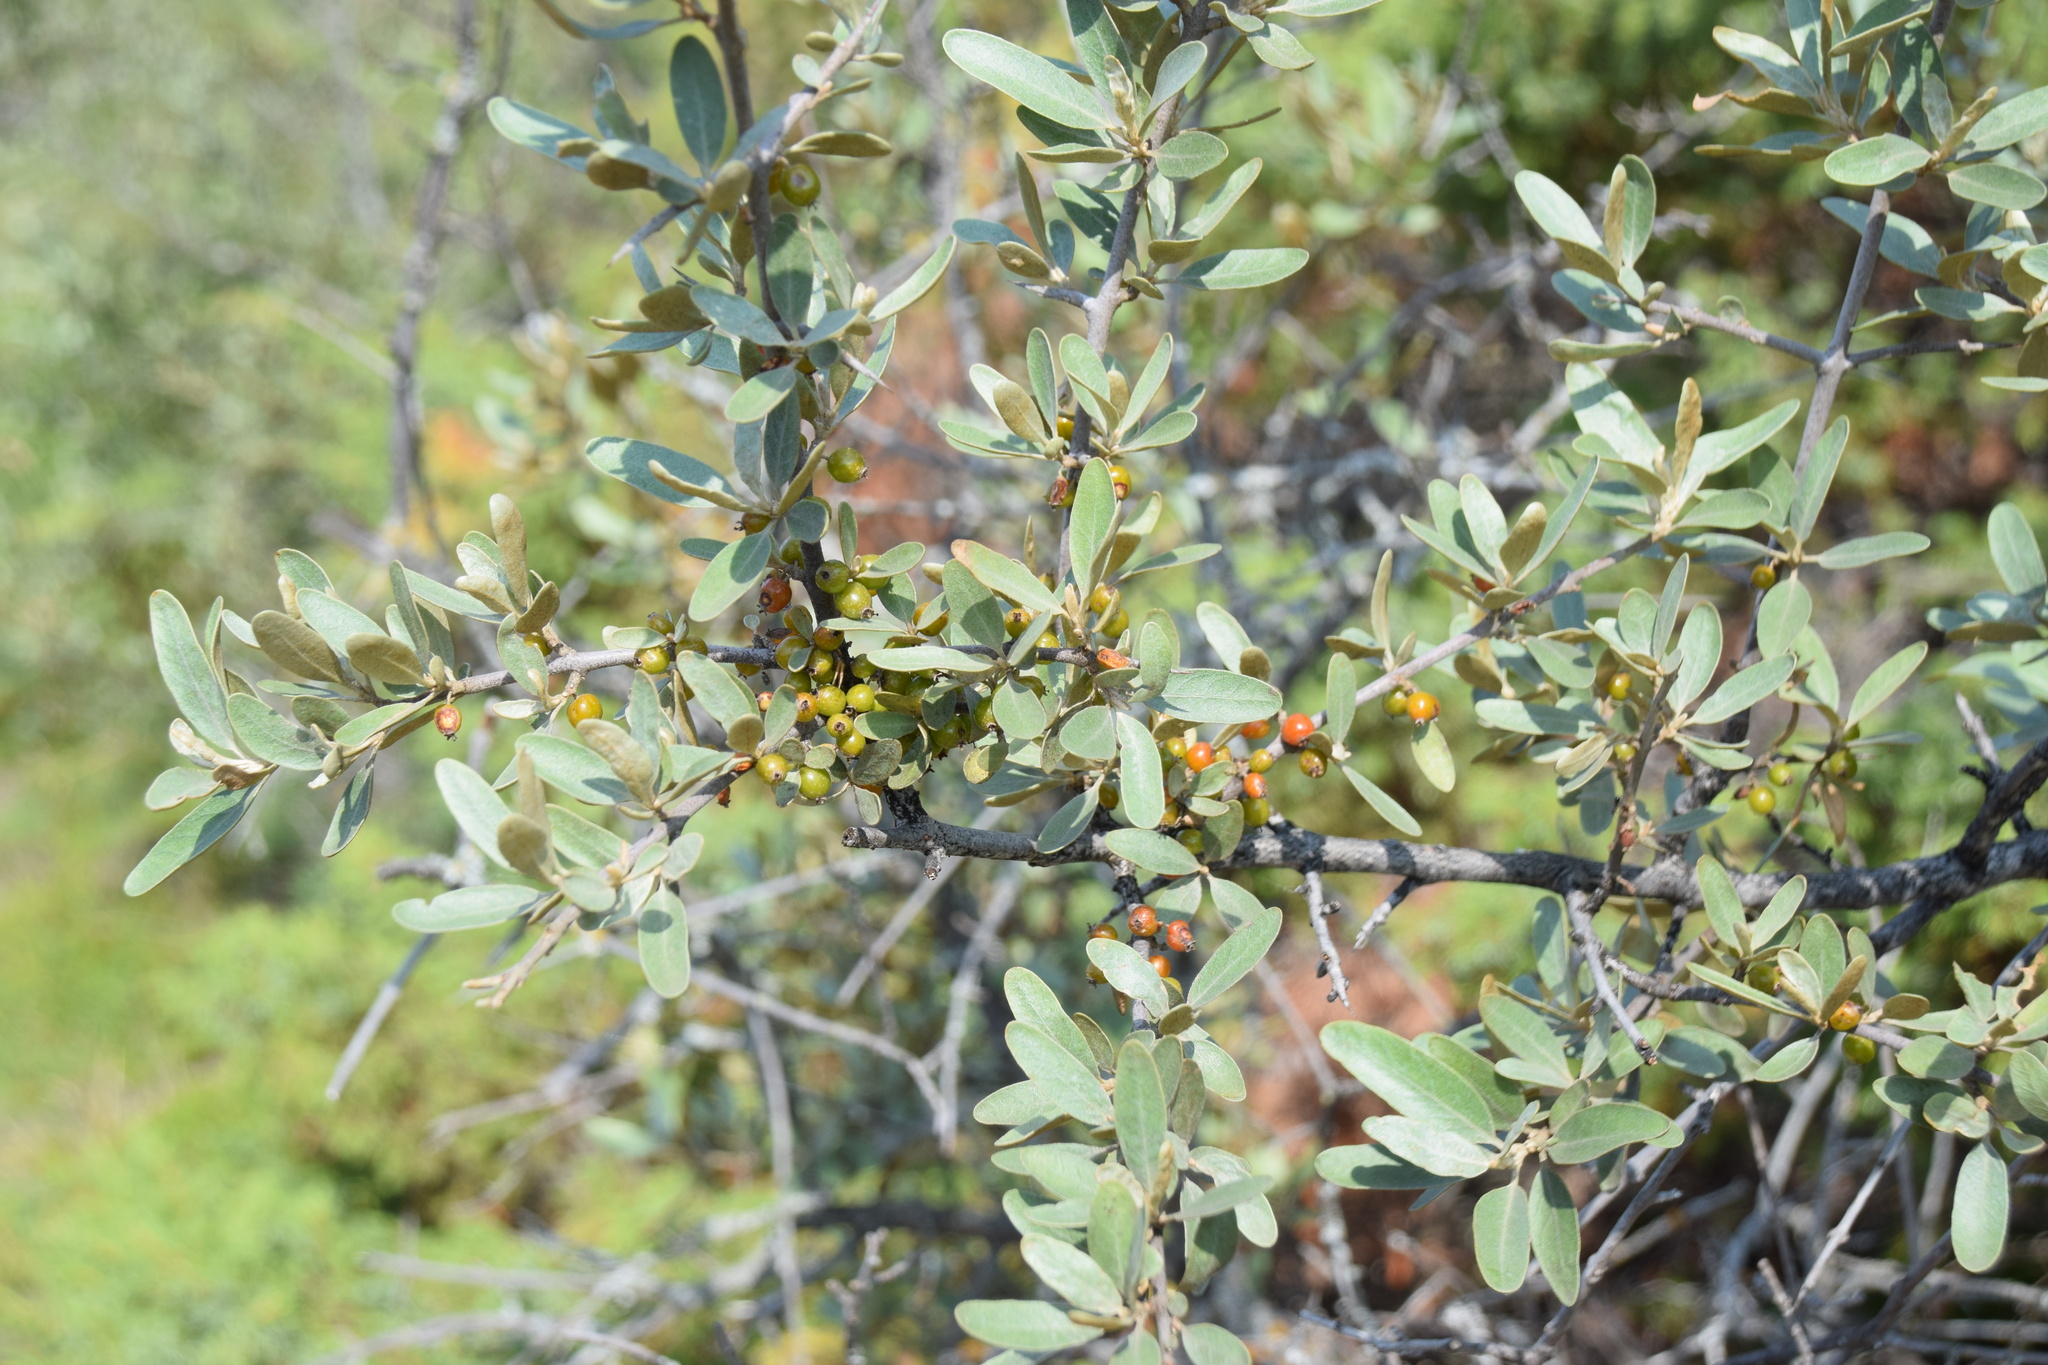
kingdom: Plantae
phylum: Tracheophyta
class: Magnoliopsida
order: Rosales
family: Elaeagnaceae
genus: Shepherdia
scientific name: Shepherdia argentea
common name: Silver buffaloberry
